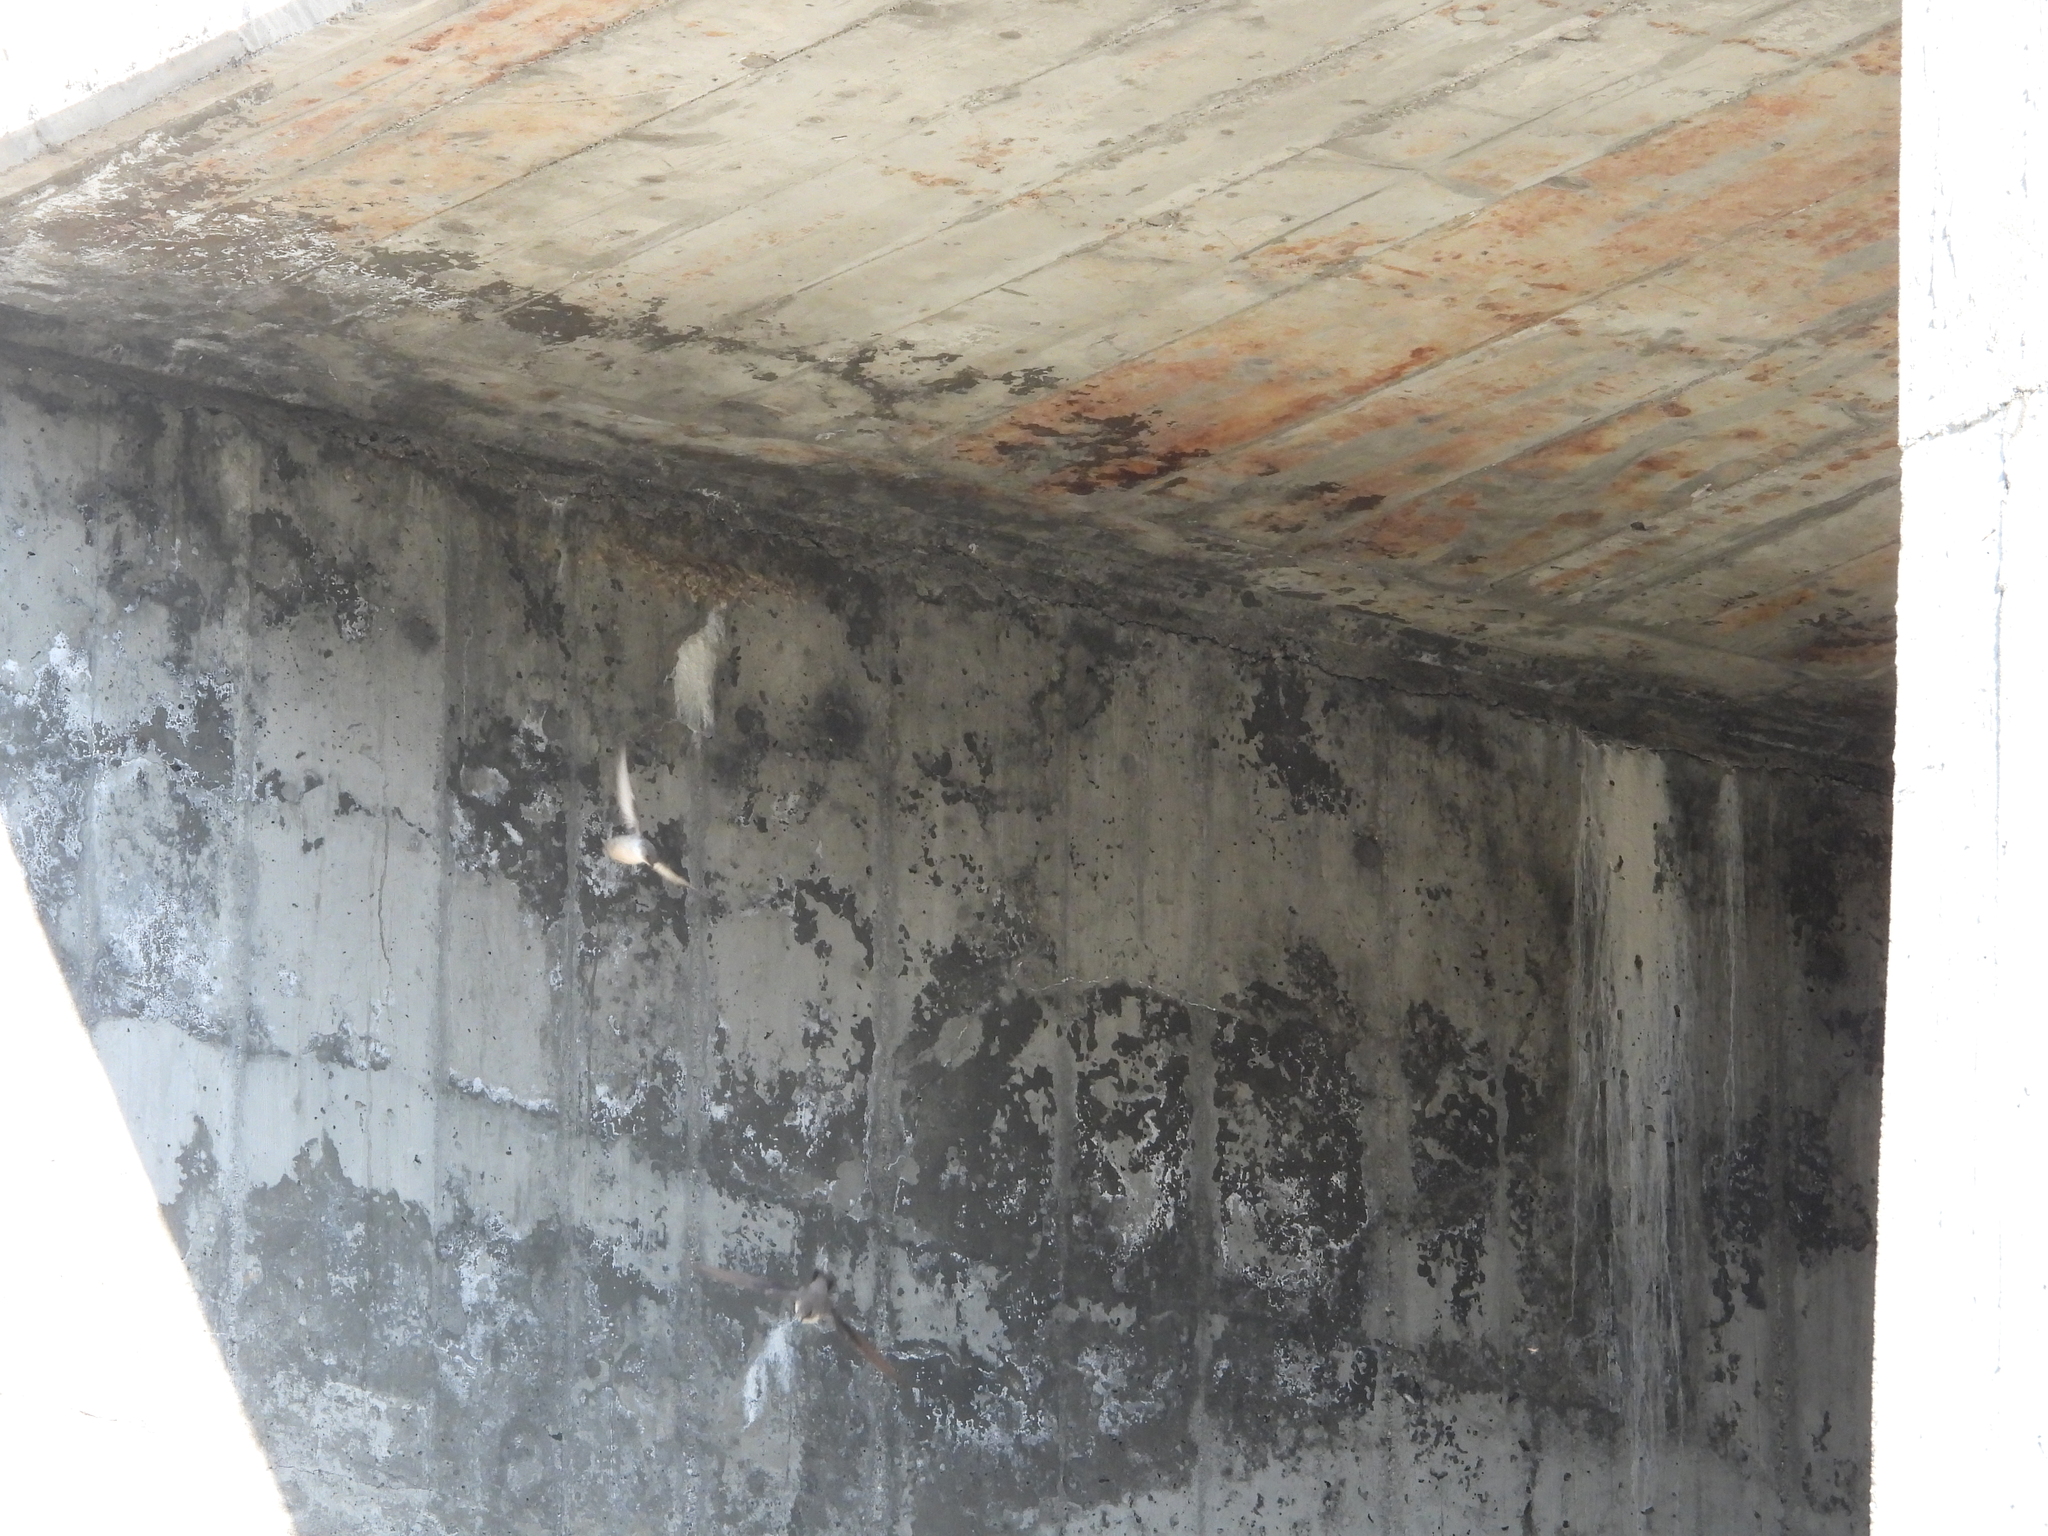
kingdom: Animalia
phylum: Chordata
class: Aves
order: Passeriformes
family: Hirundinidae
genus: Ptyonoprogne
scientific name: Ptyonoprogne rupestris
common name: Eurasian crag martin
